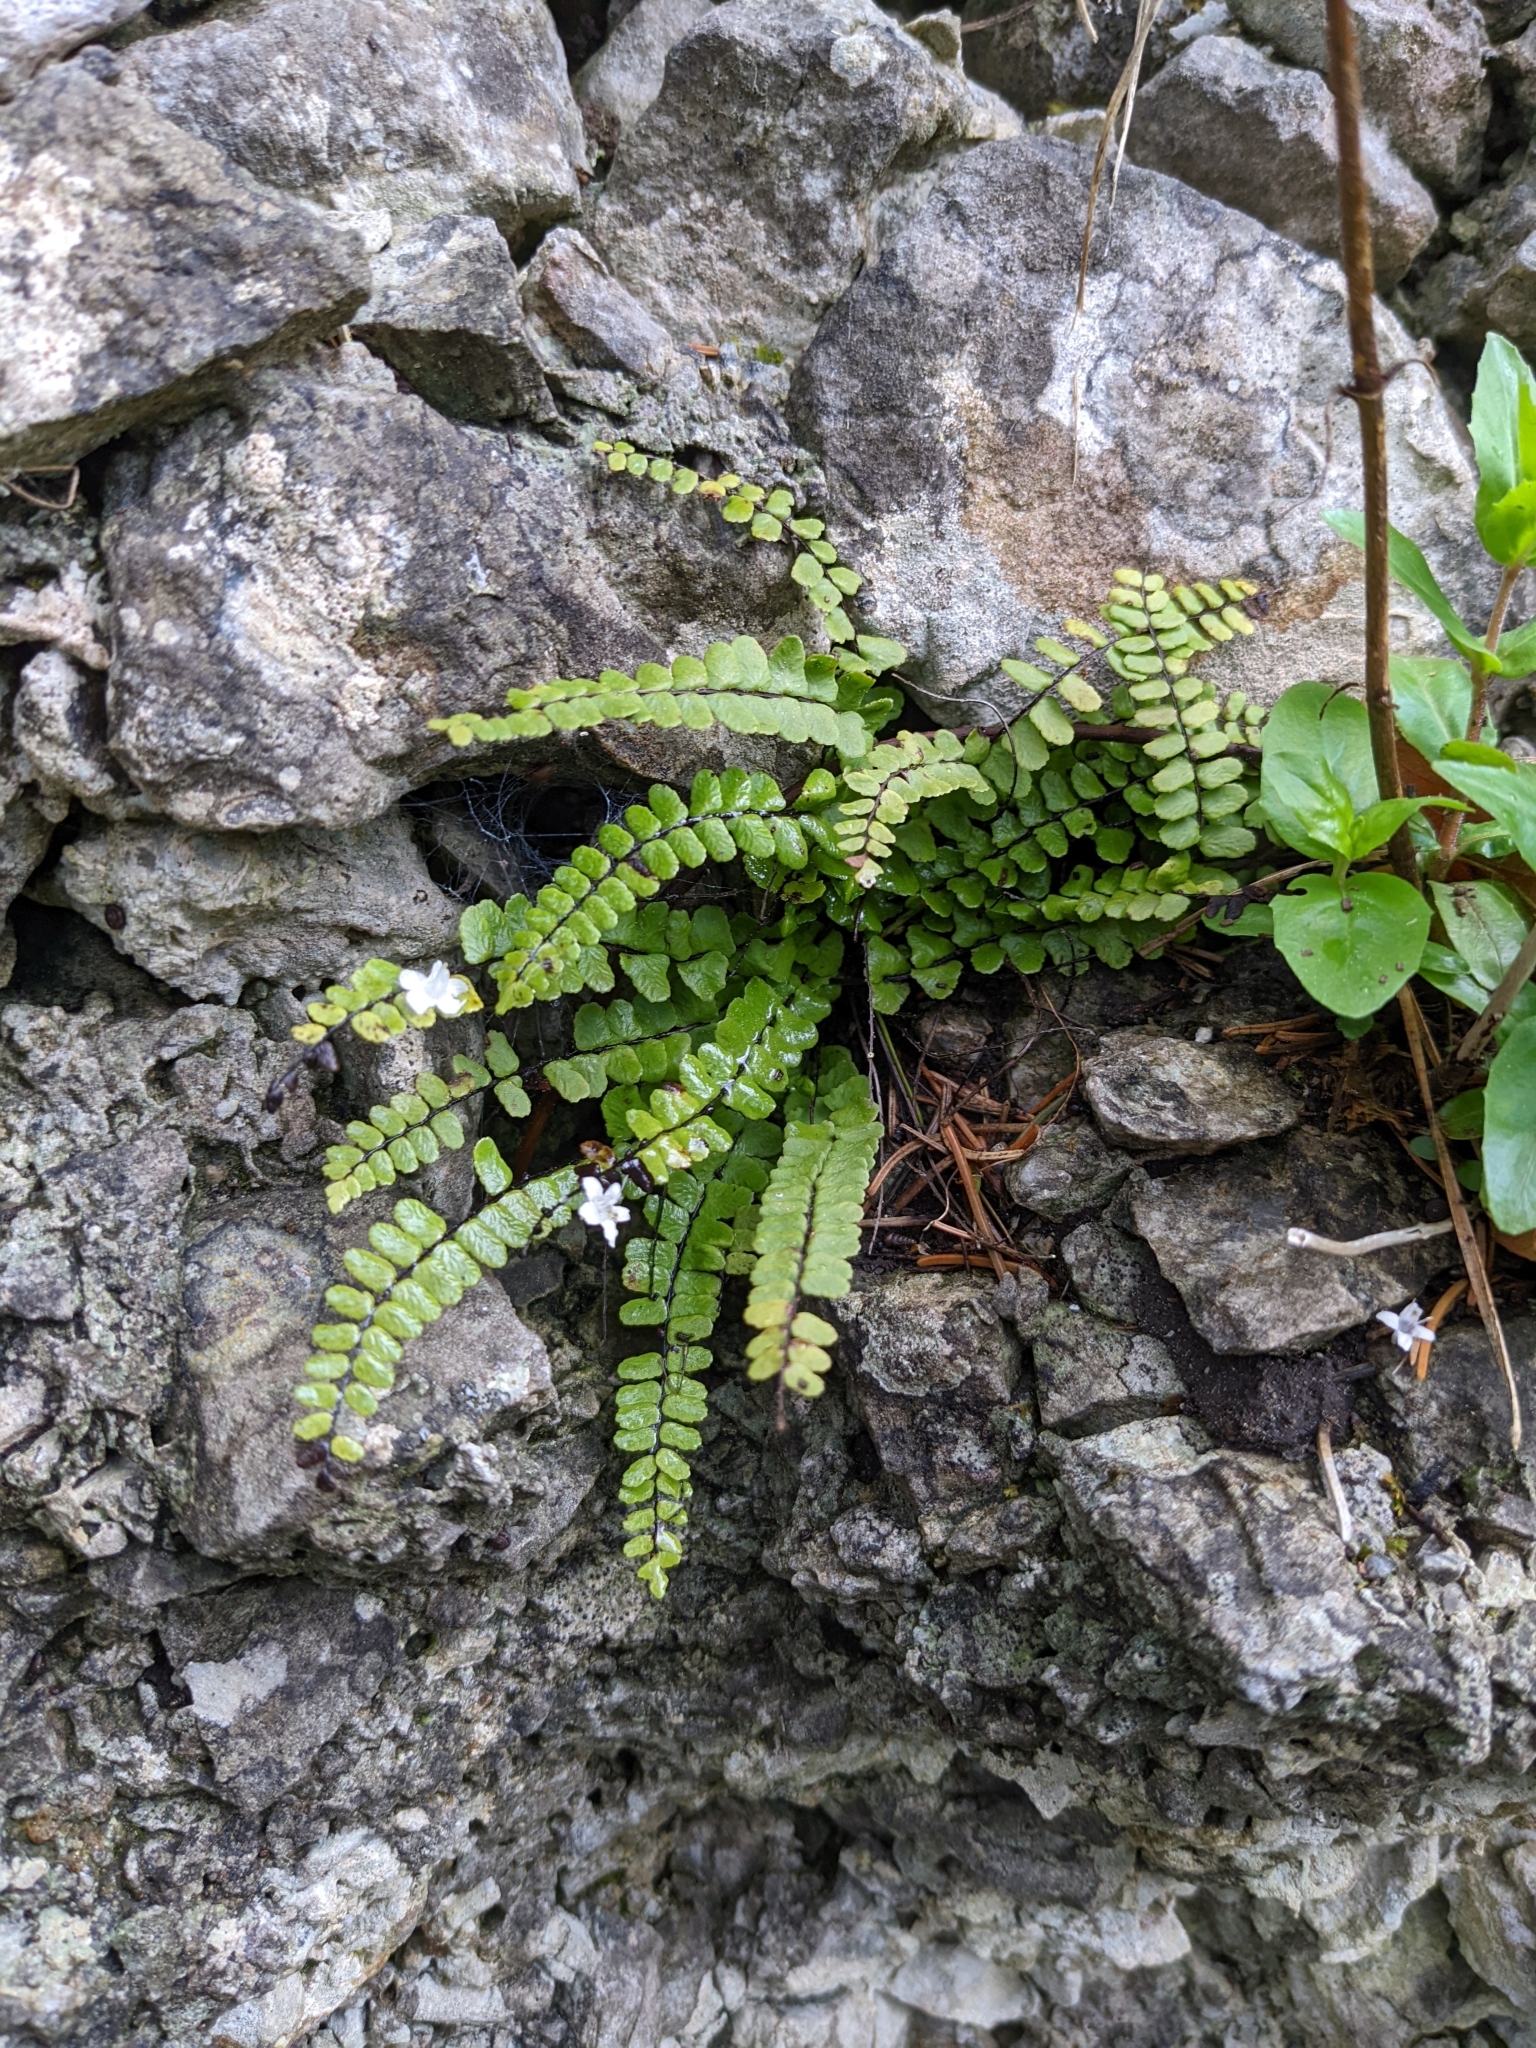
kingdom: Plantae
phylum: Tracheophyta
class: Polypodiopsida
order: Polypodiales
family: Aspleniaceae
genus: Asplenium
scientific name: Asplenium trichomanes
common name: Maidenhair spleenwort
